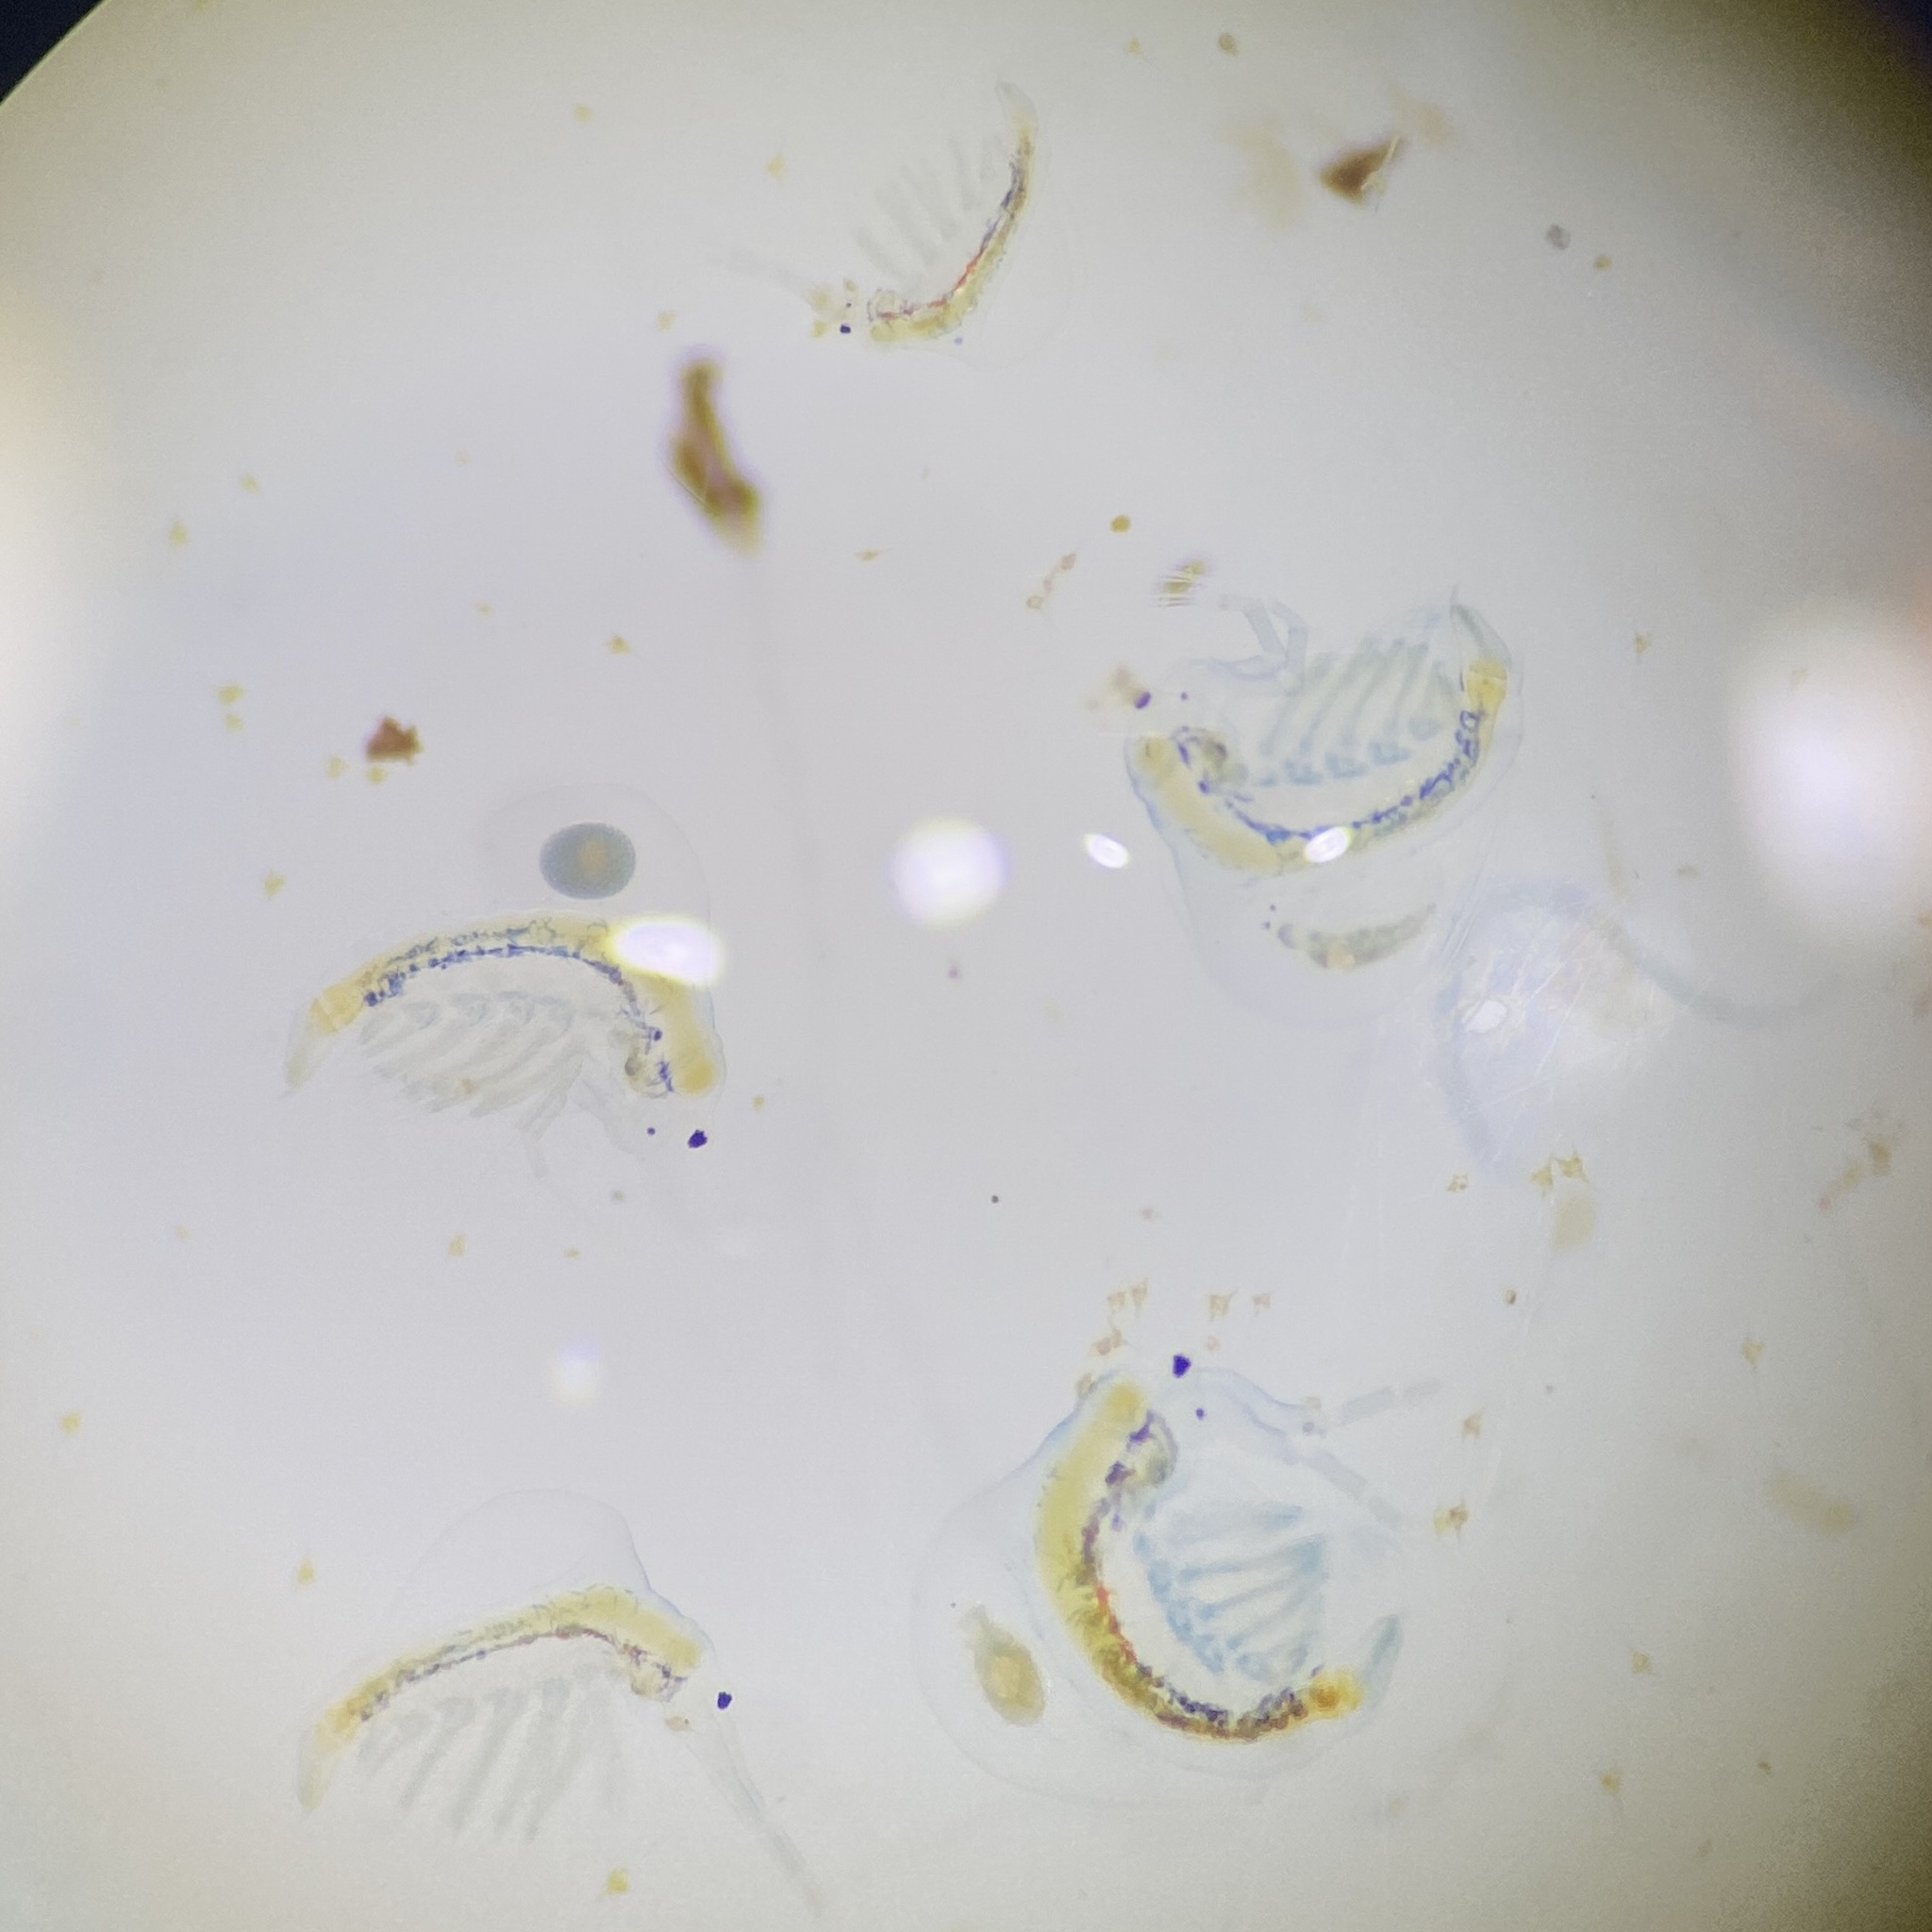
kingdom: Animalia
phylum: Arthropoda
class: Branchiopoda
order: Diplostraca
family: Holopediidae
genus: Holopedium
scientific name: Holopedium gibberum
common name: Jelly waterflea
